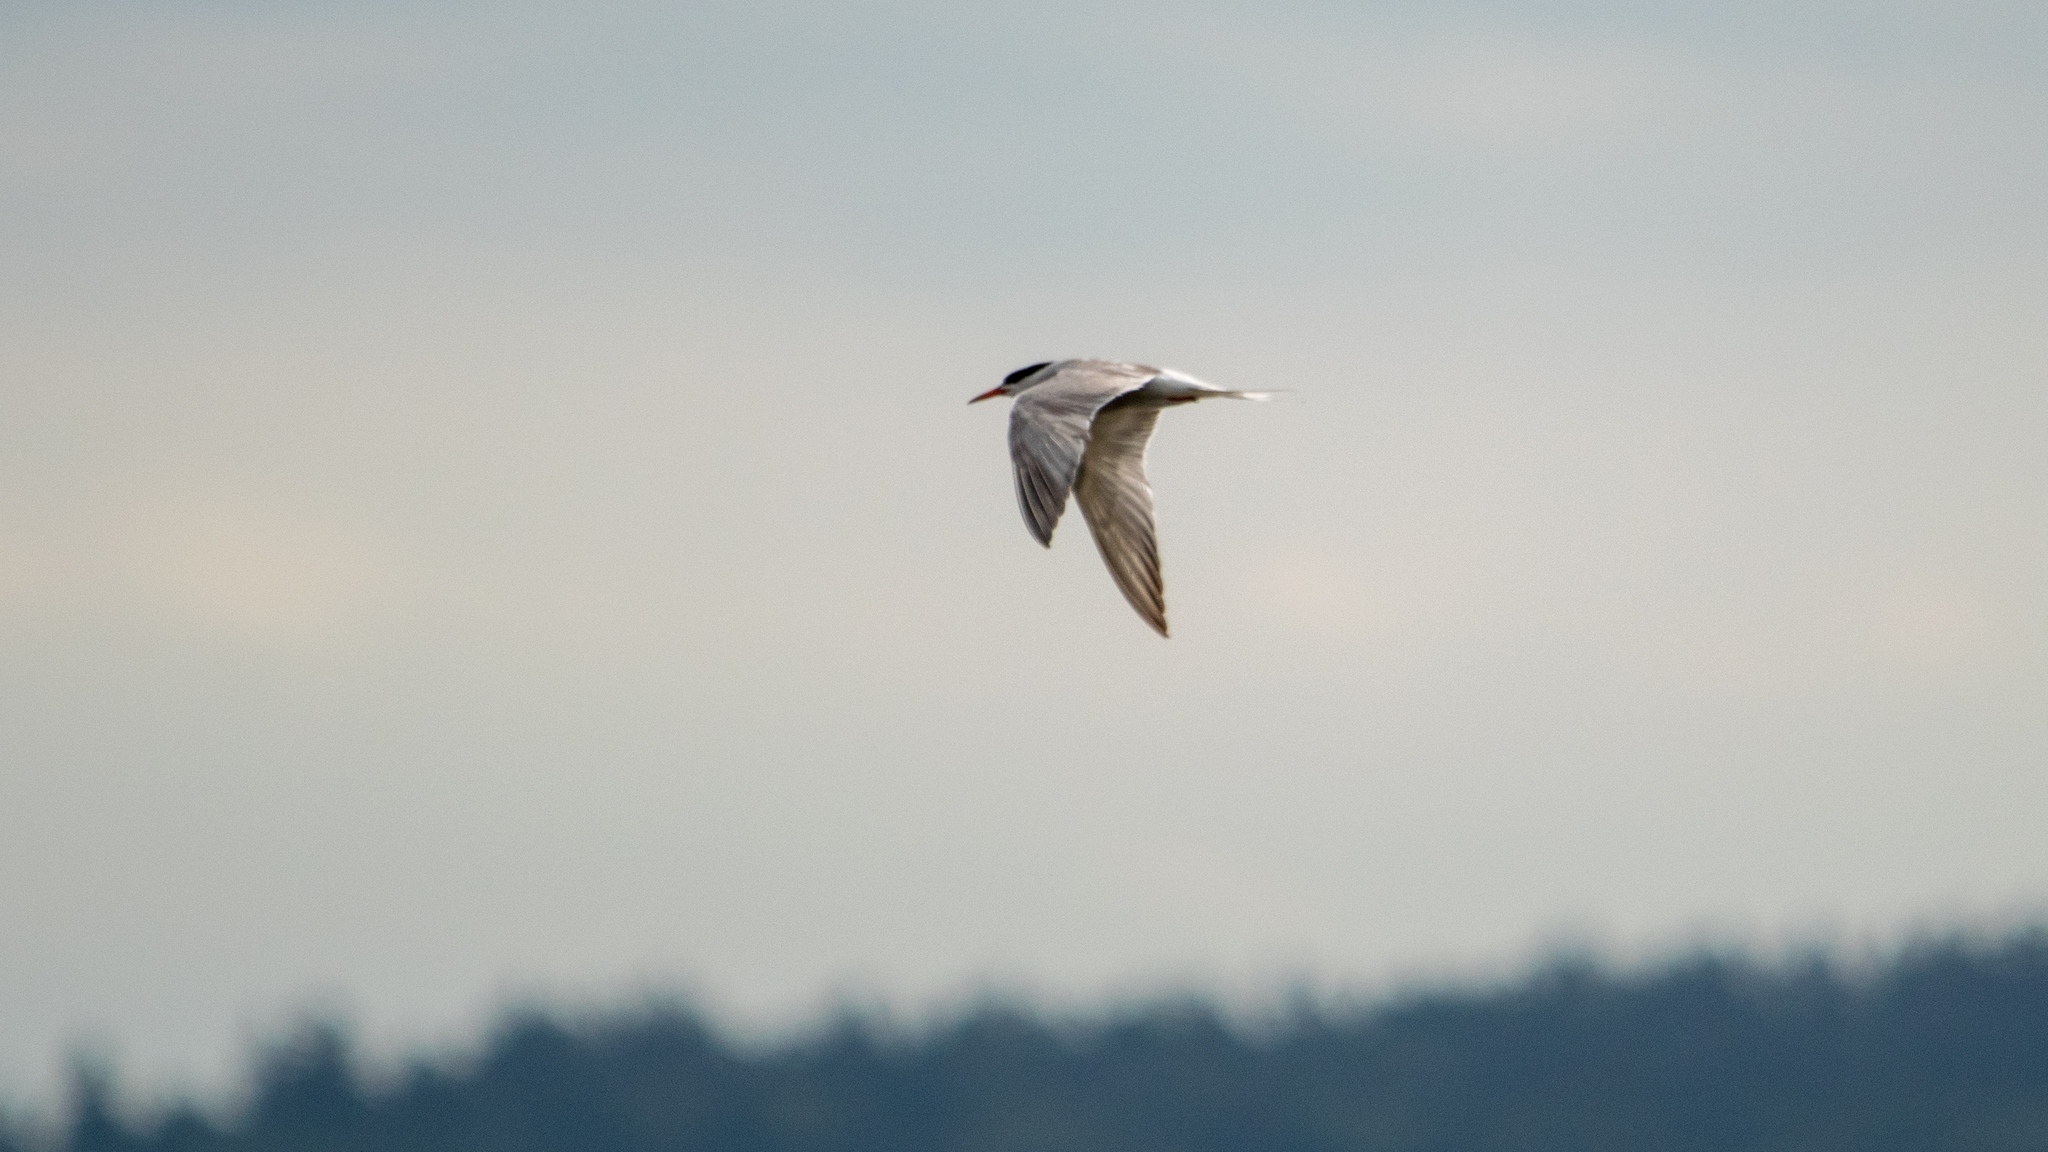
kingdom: Animalia
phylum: Chordata
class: Aves
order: Charadriiformes
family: Laridae
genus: Sterna
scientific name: Sterna hirundo
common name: Common tern
